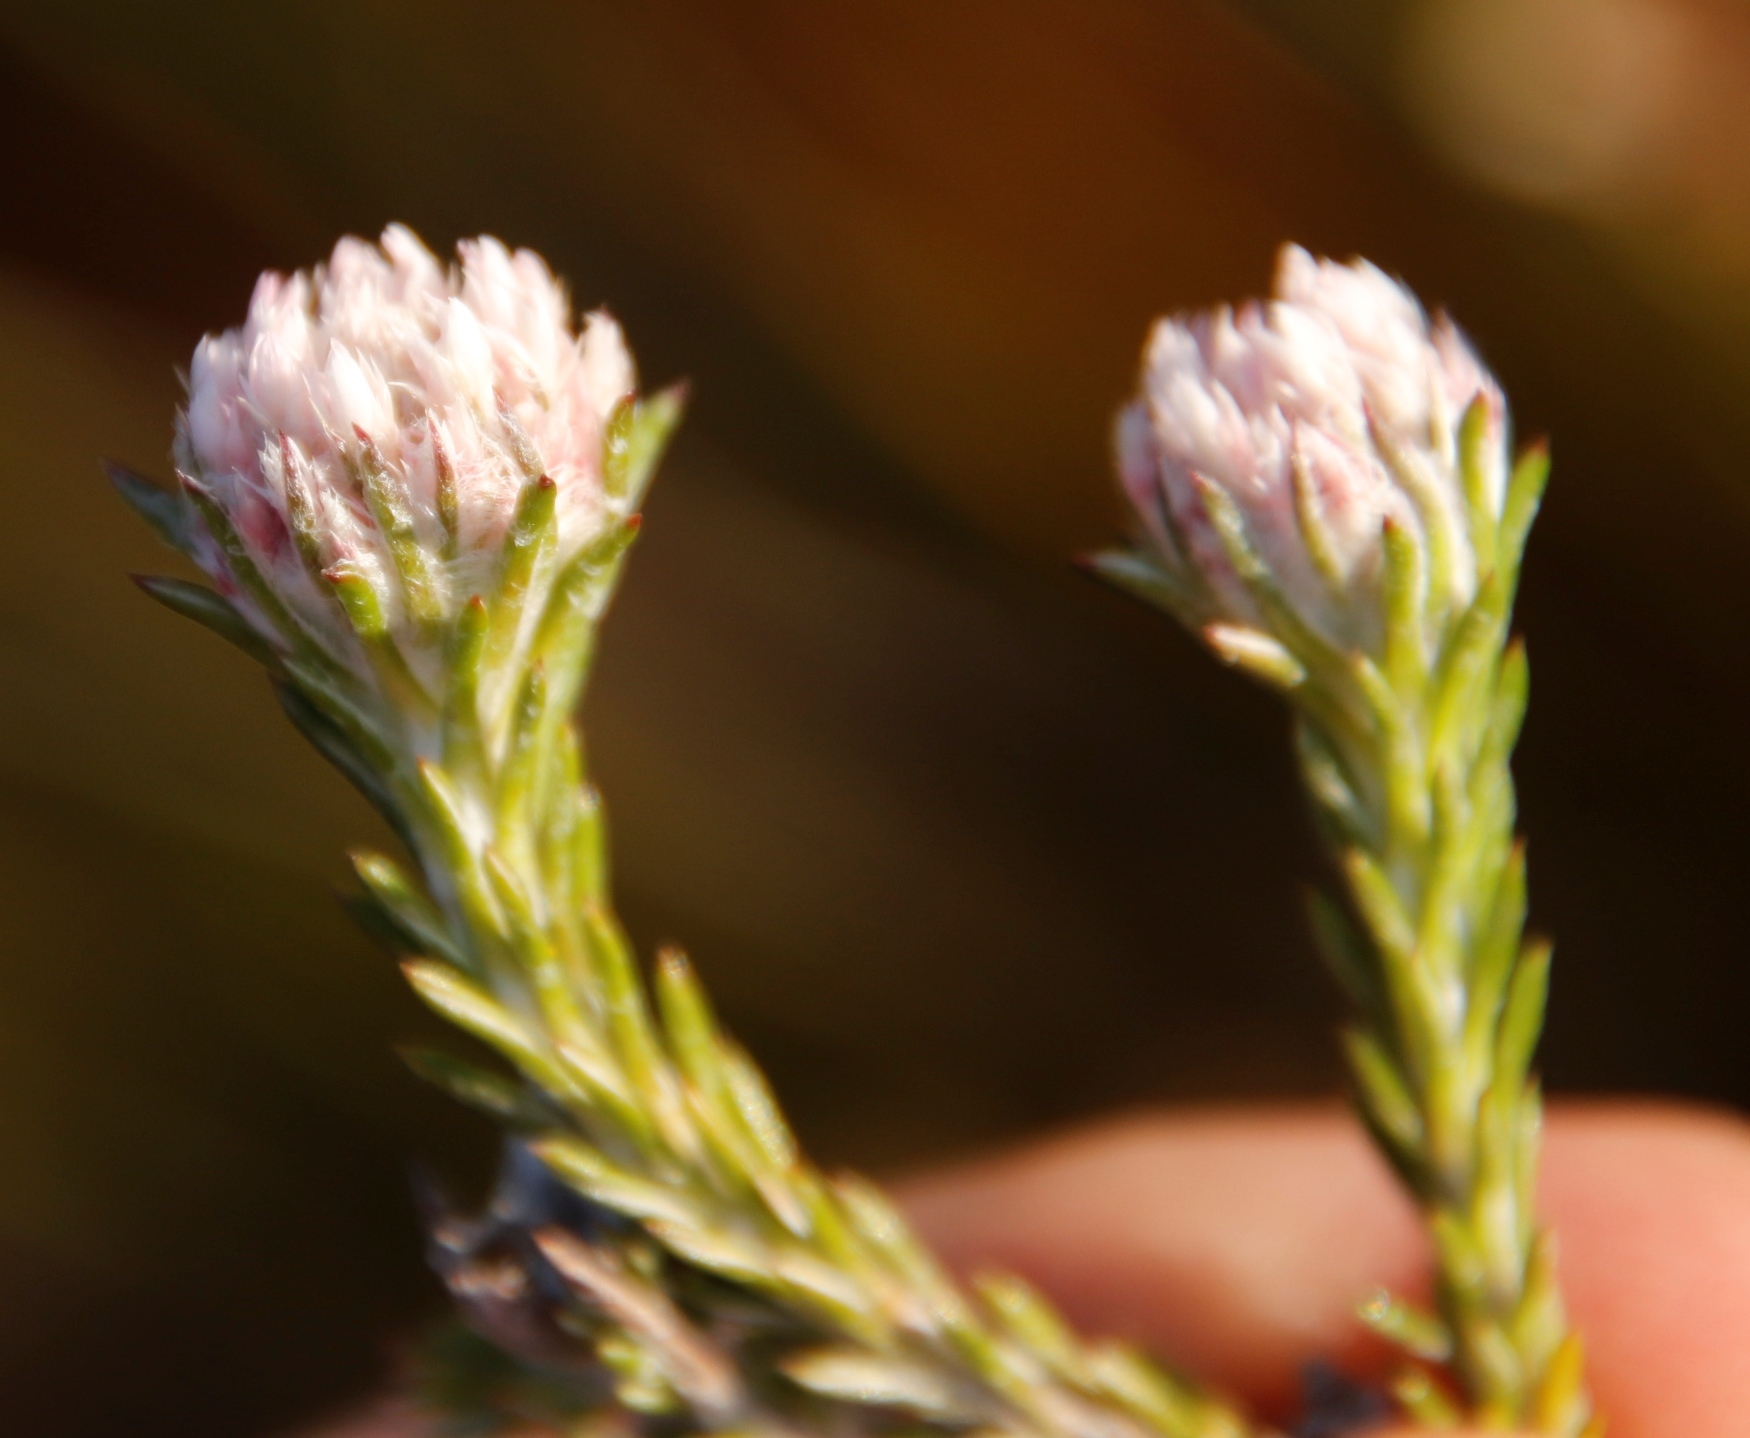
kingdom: Plantae
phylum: Tracheophyta
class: Magnoliopsida
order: Asterales
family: Asteraceae
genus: Metalasia
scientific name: Metalasia compacta
